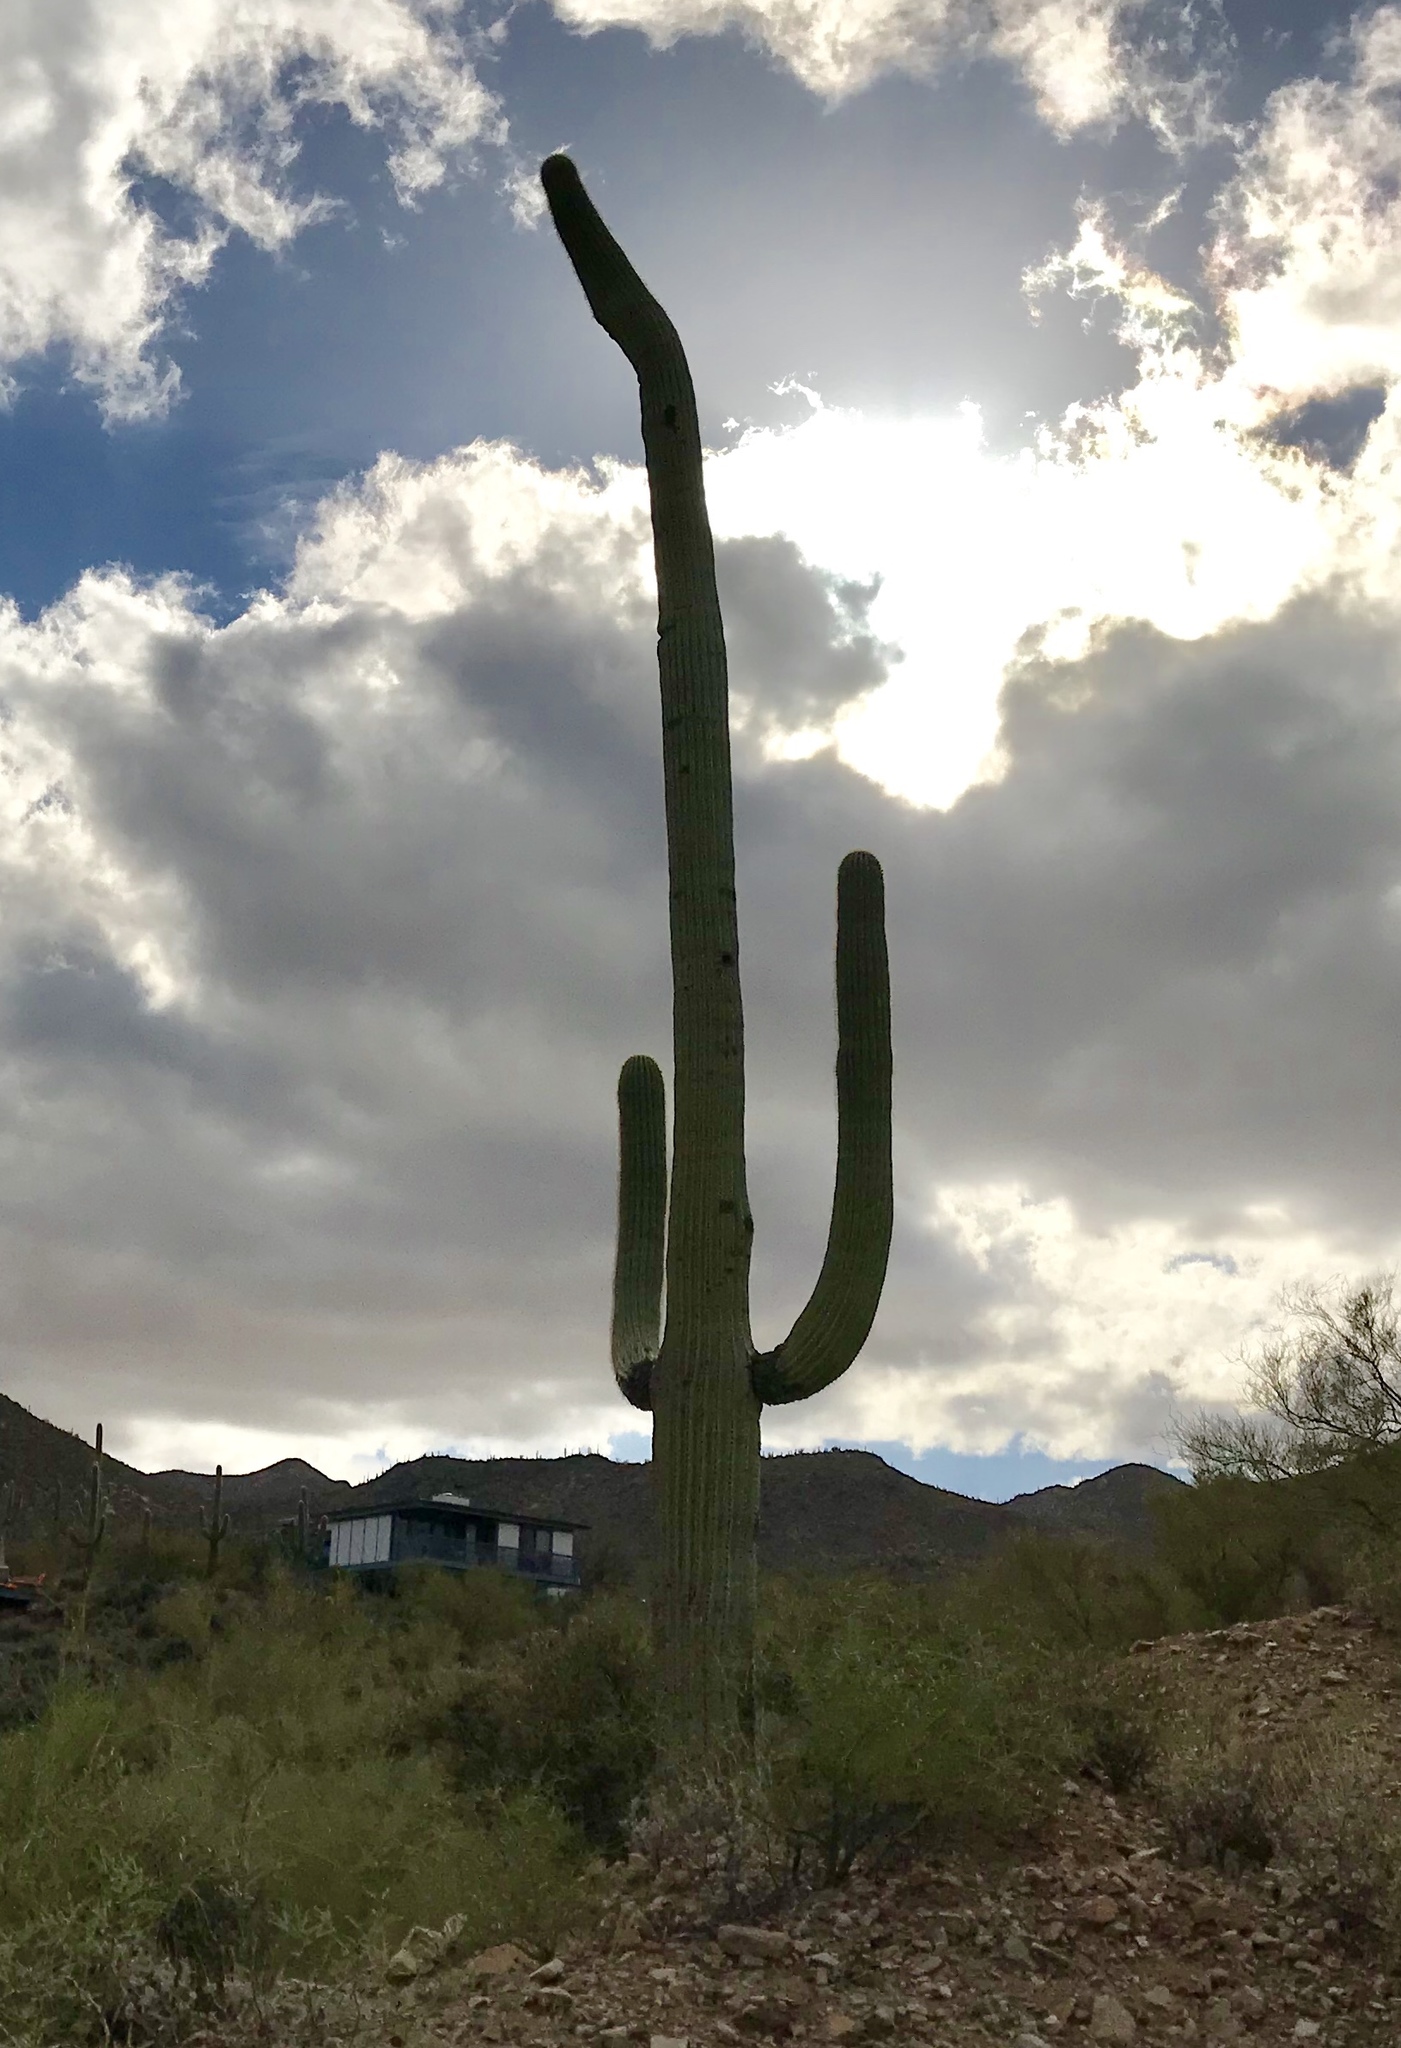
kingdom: Plantae
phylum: Tracheophyta
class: Magnoliopsida
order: Caryophyllales
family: Cactaceae
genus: Carnegiea
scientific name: Carnegiea gigantea
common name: Saguaro
